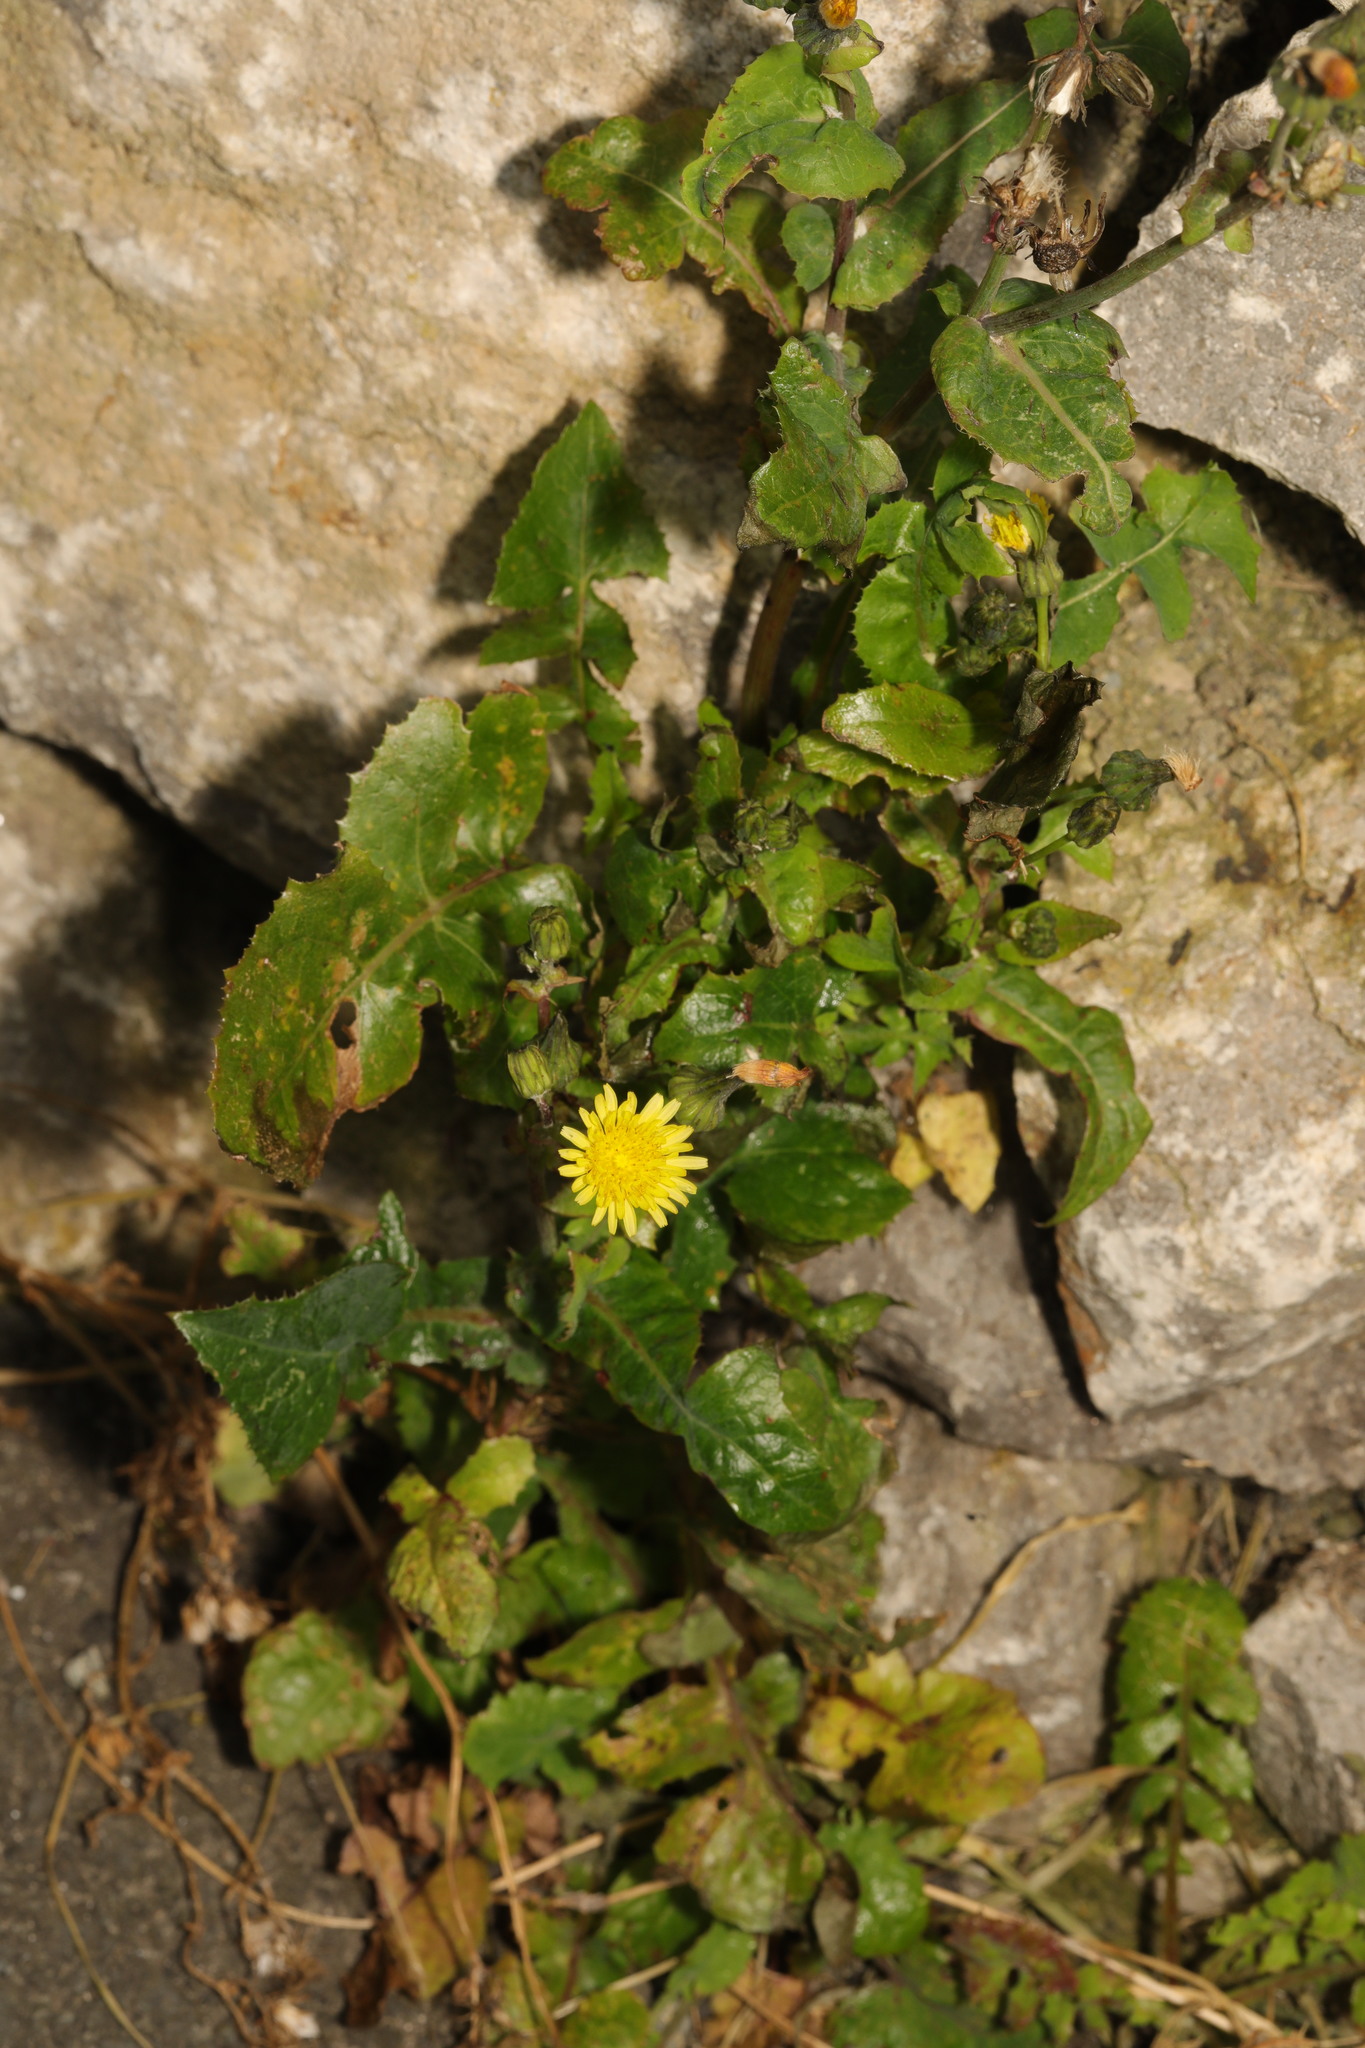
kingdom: Plantae
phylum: Tracheophyta
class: Magnoliopsida
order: Asterales
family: Asteraceae
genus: Sonchus
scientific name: Sonchus oleraceus
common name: Common sowthistle
